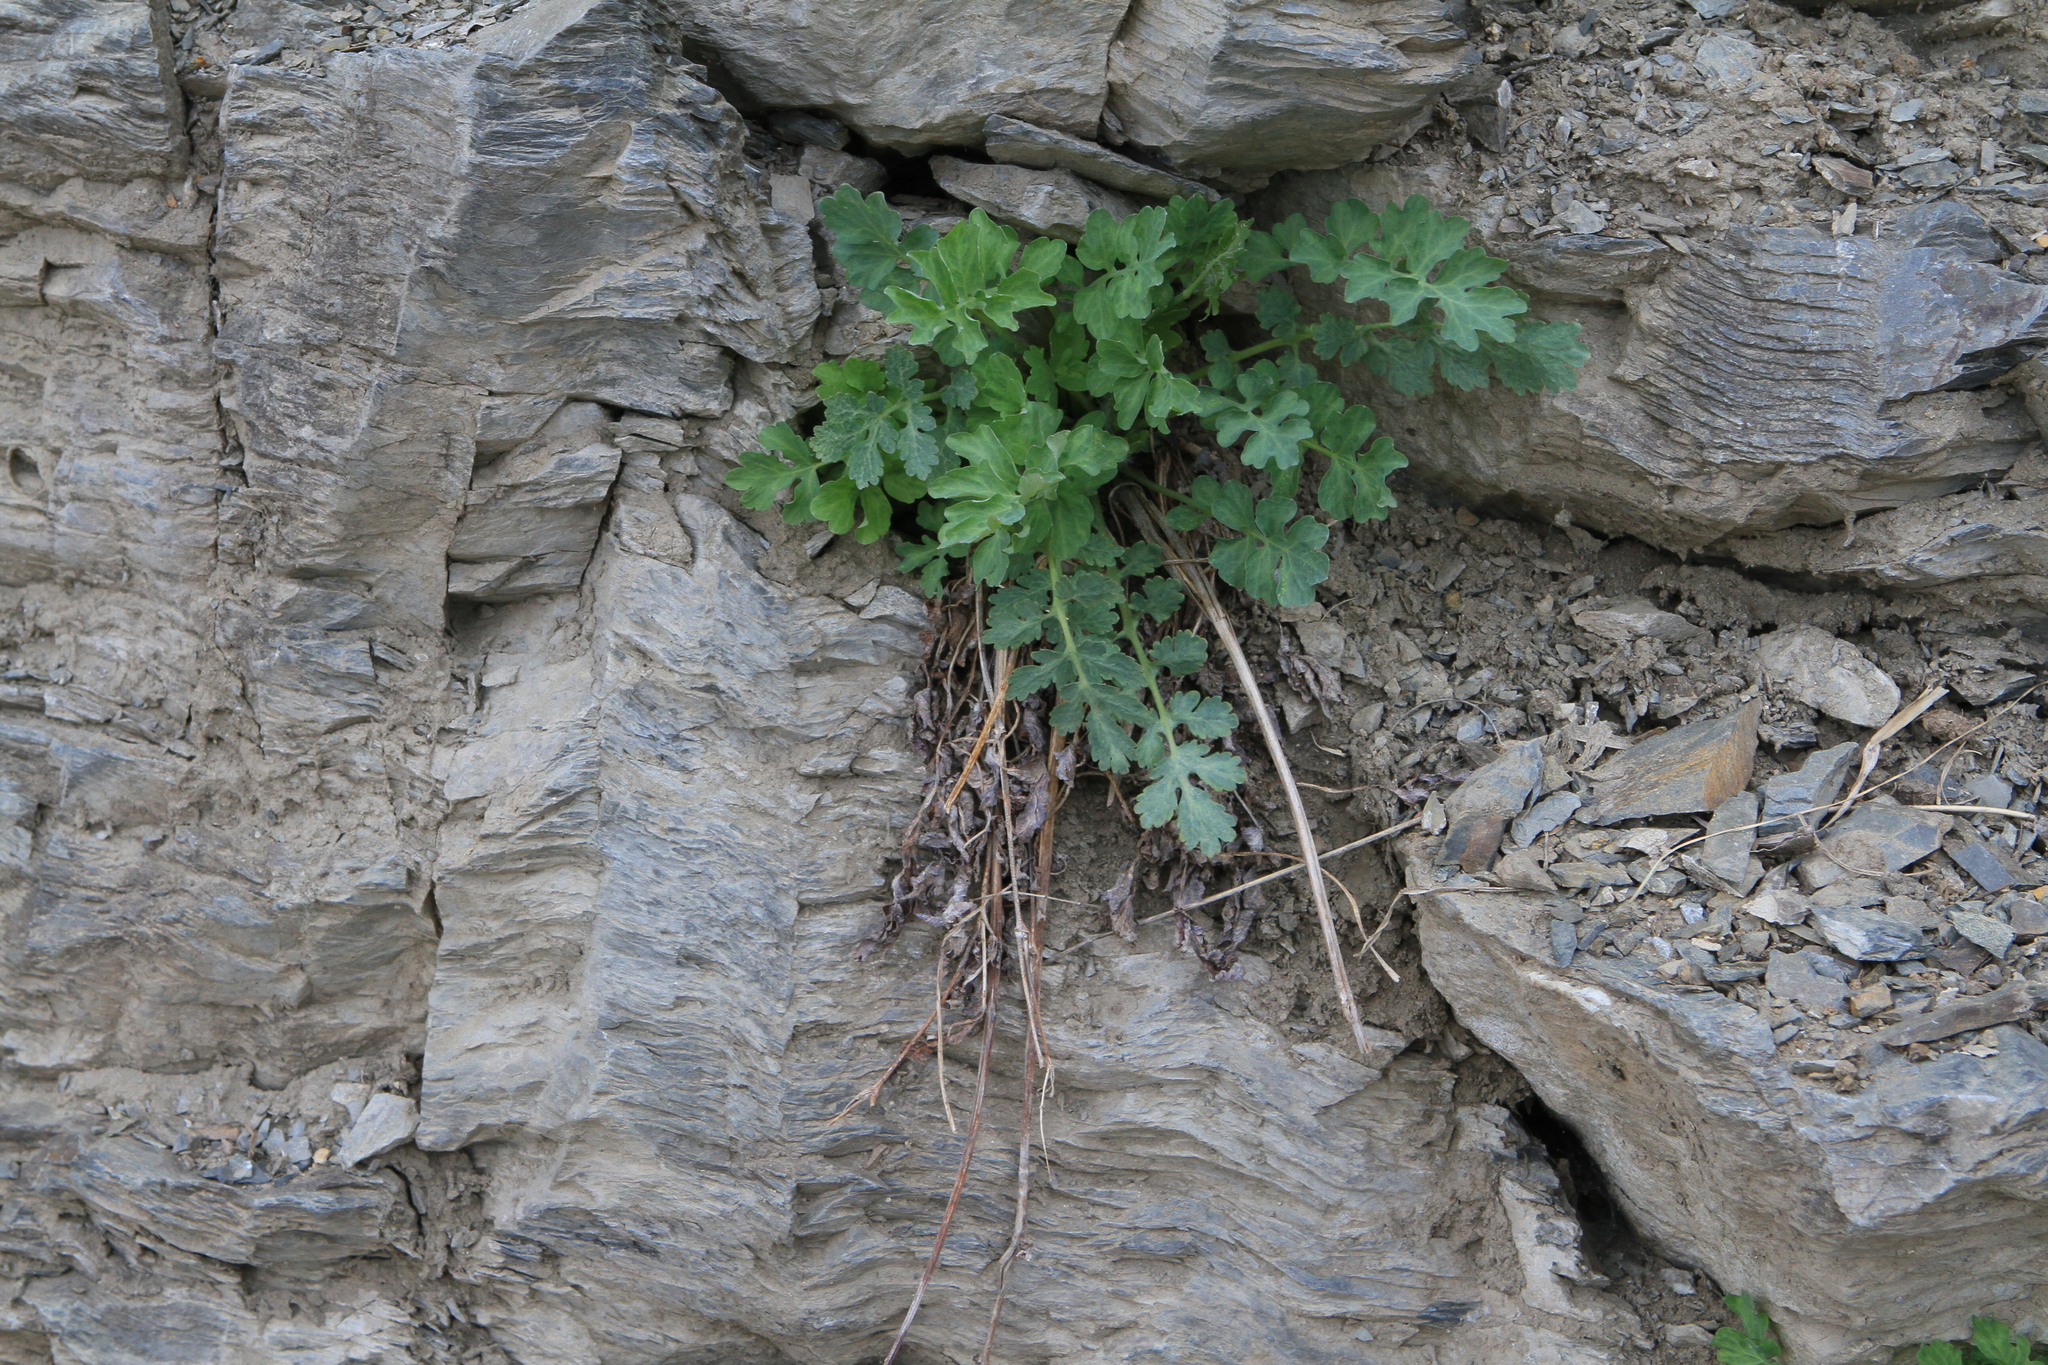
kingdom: Plantae
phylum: Tracheophyta
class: Magnoliopsida
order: Ranunculales
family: Papaveraceae
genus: Chelidonium
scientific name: Chelidonium majus
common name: Greater celandine
